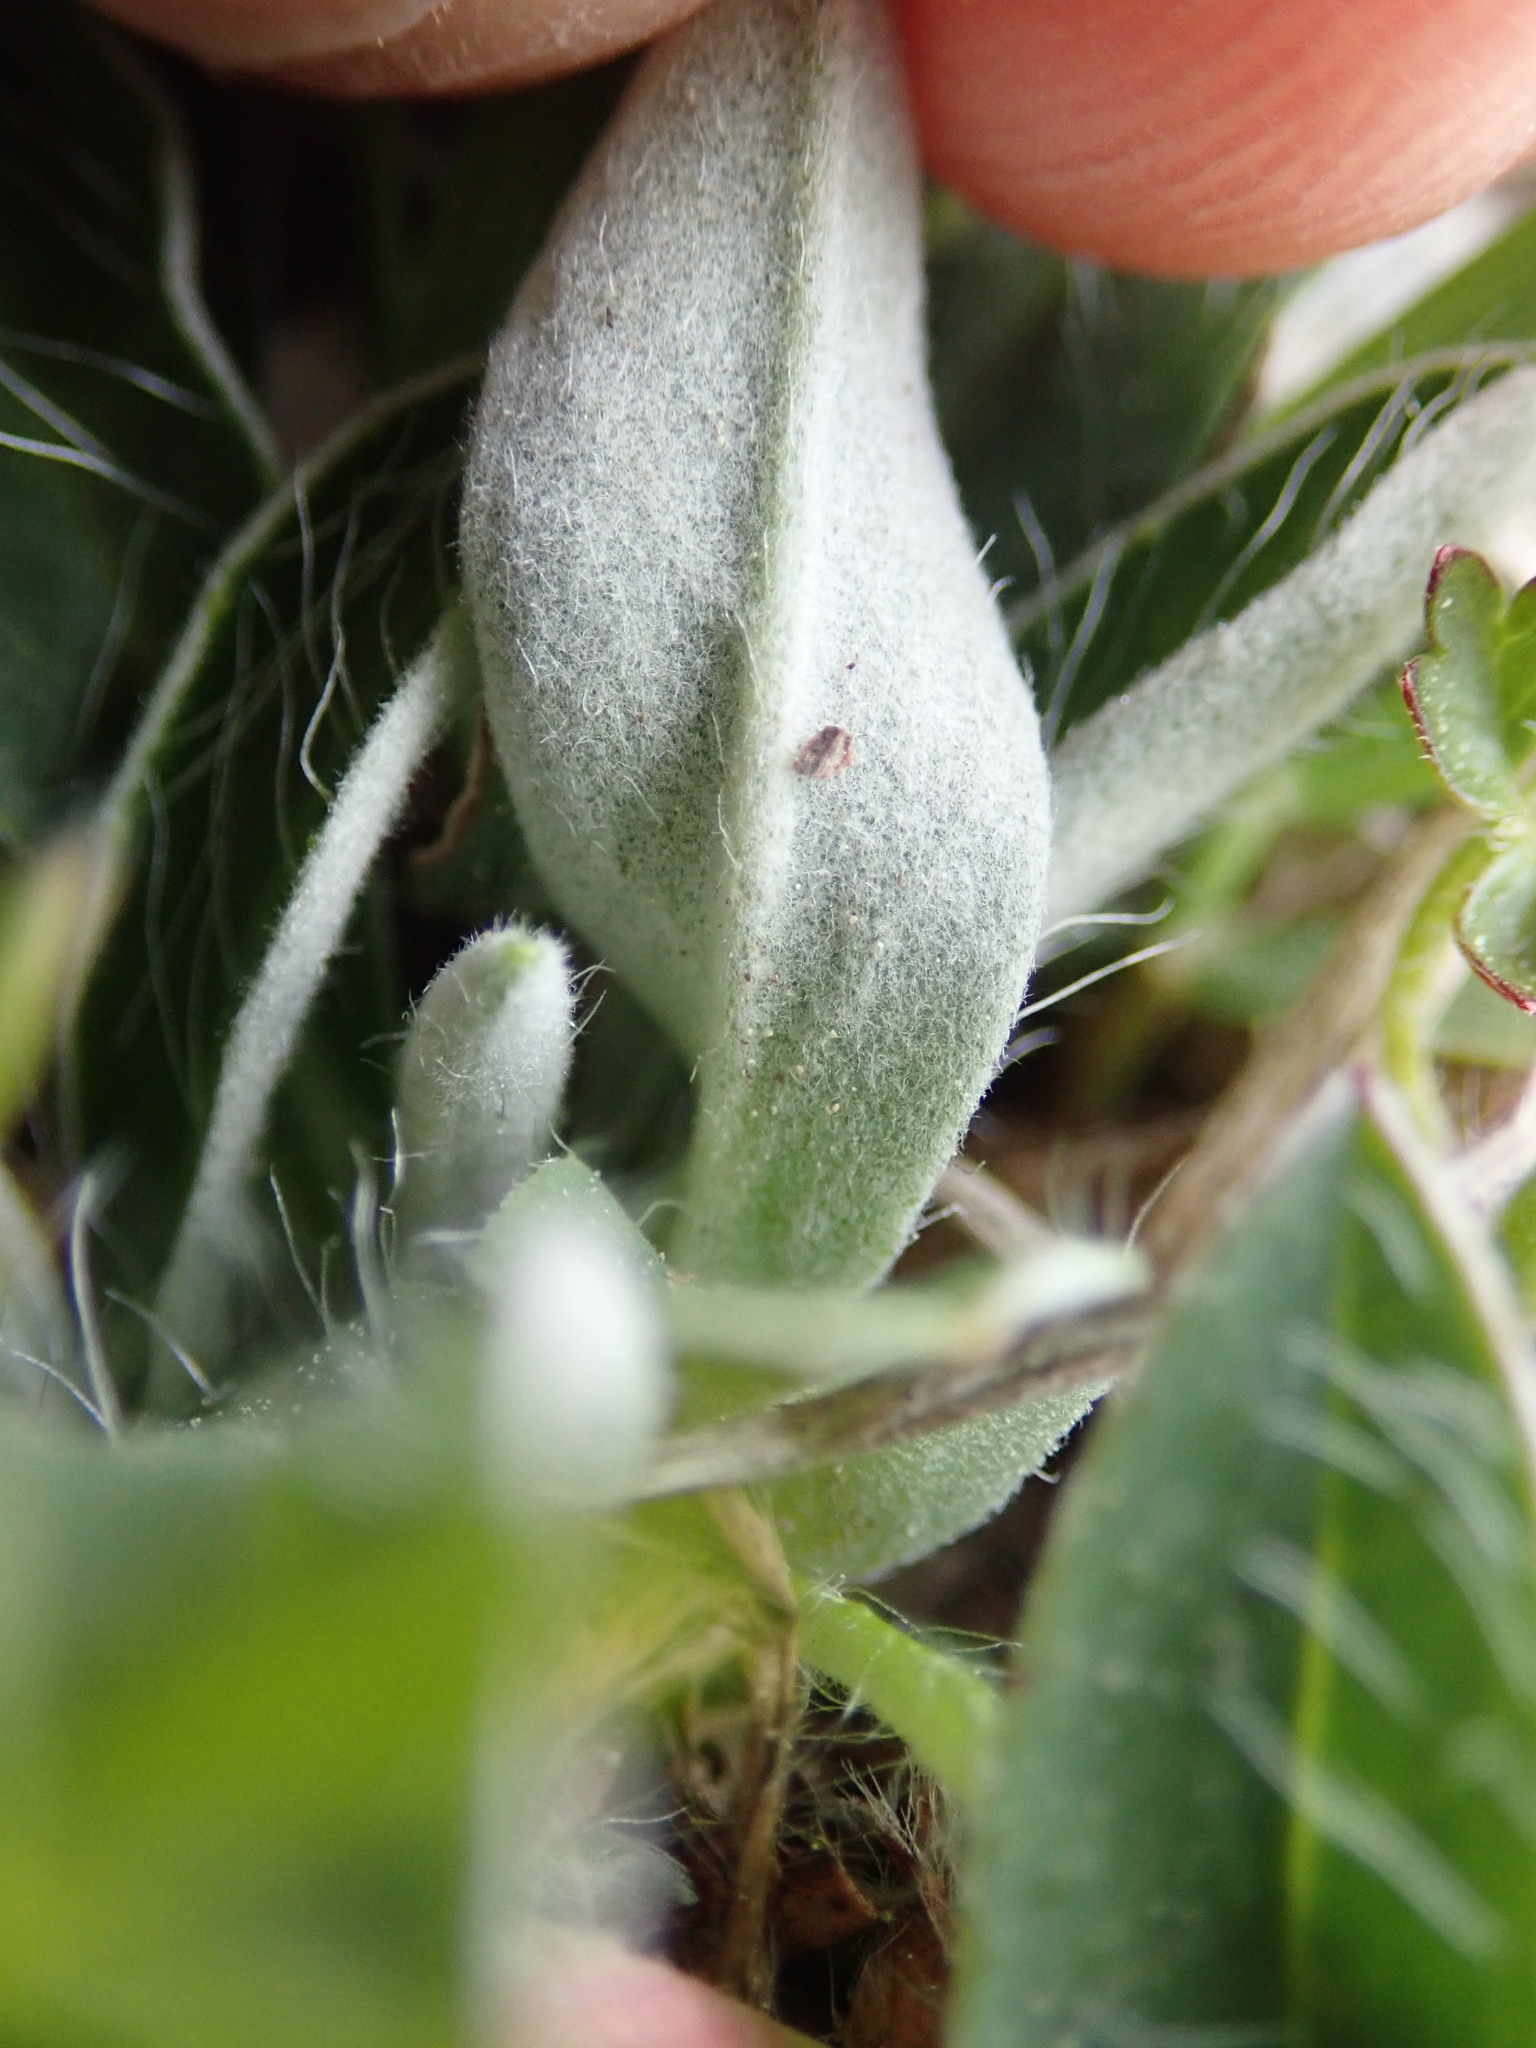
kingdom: Plantae
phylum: Tracheophyta
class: Magnoliopsida
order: Asterales
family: Asteraceae
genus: Pilosella
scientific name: Pilosella officinarum
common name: Mouse-ear hawkweed
